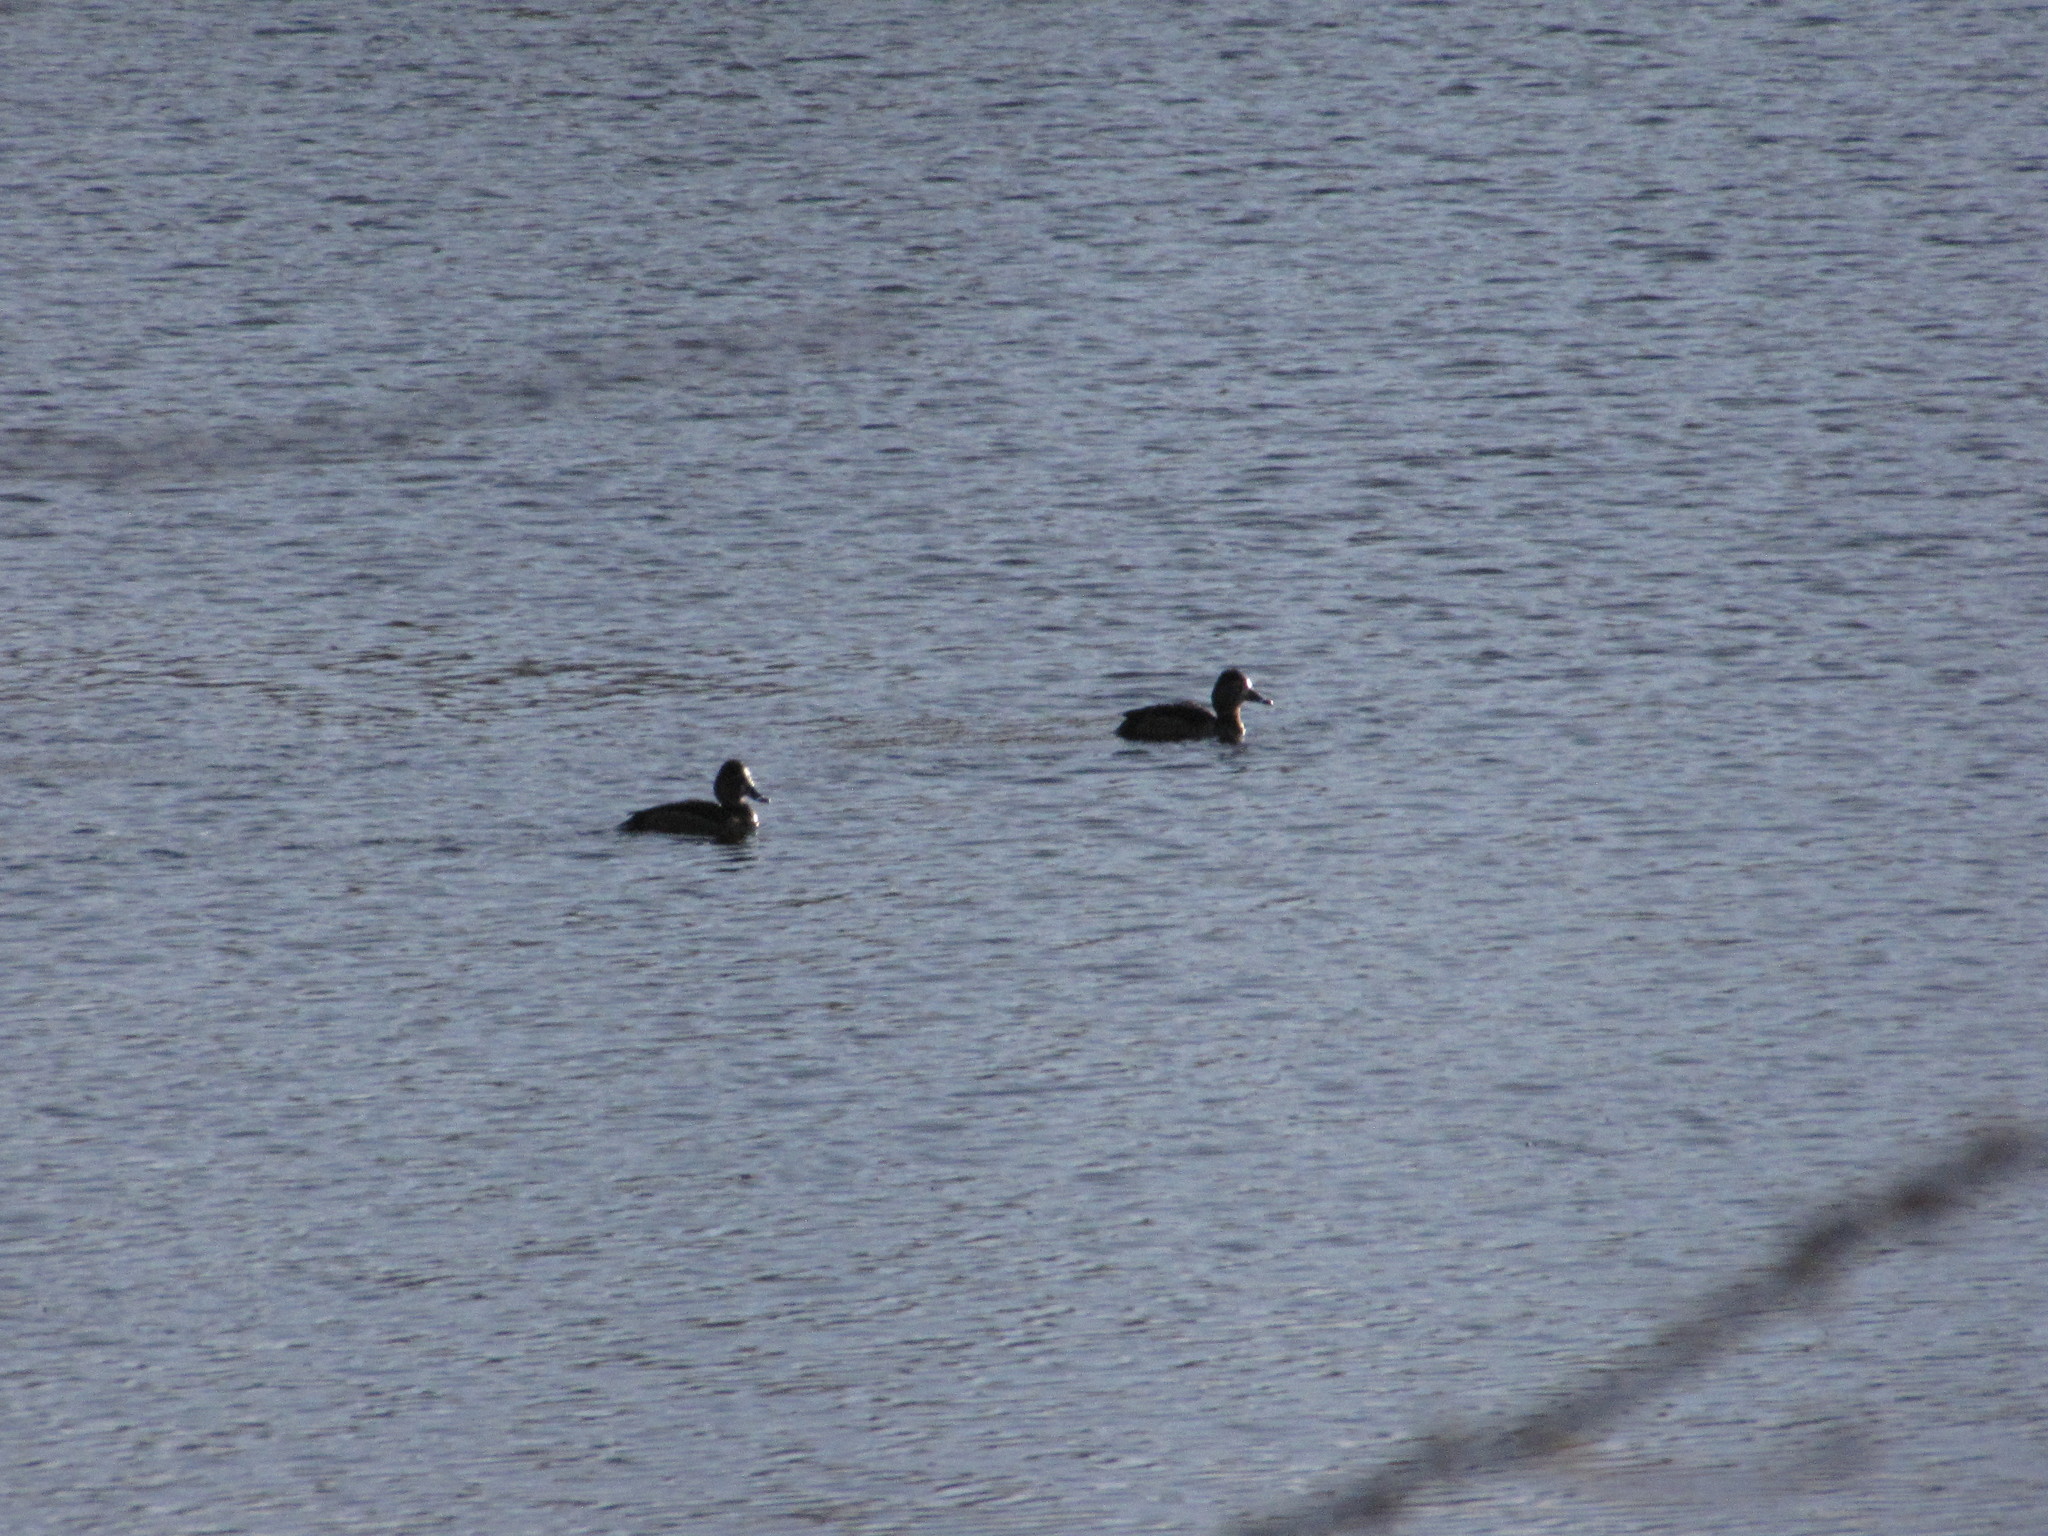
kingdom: Animalia
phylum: Chordata
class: Aves
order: Anseriformes
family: Anatidae
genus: Aythya
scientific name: Aythya collaris
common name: Ring-necked duck
